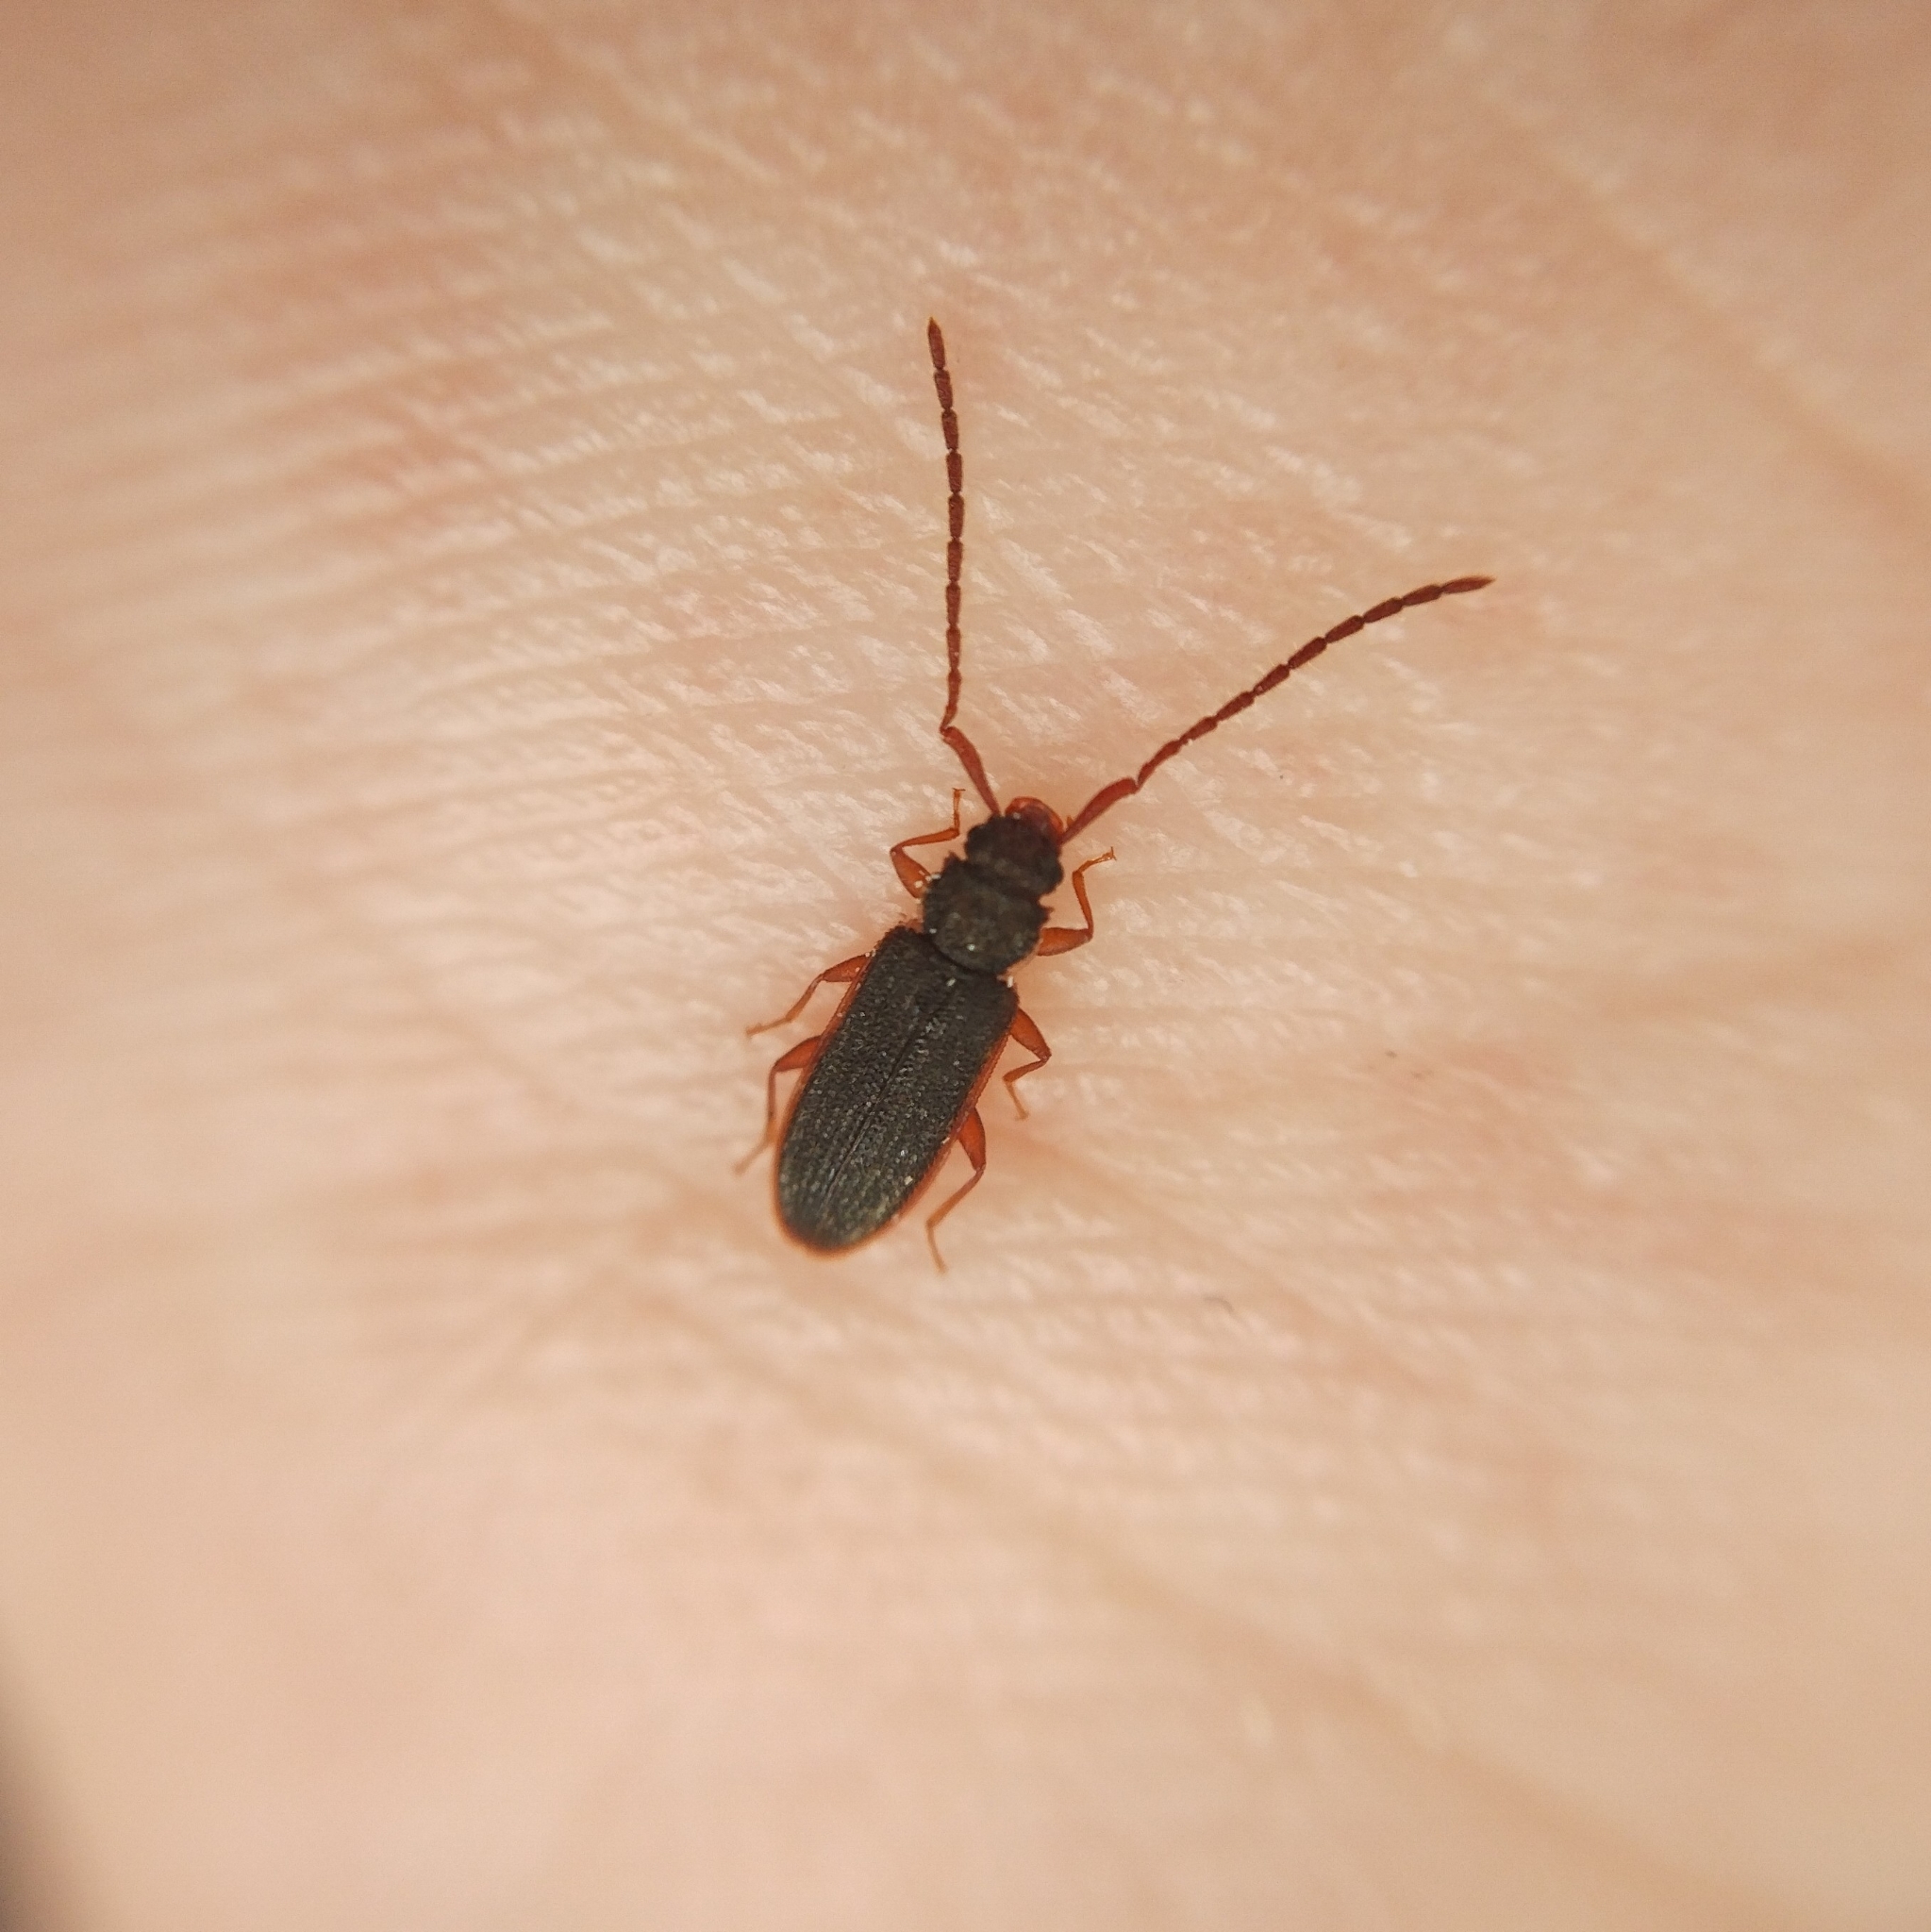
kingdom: Animalia
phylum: Arthropoda
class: Insecta
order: Coleoptera
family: Silvanidae
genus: Uleiota
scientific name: Uleiota planatus
